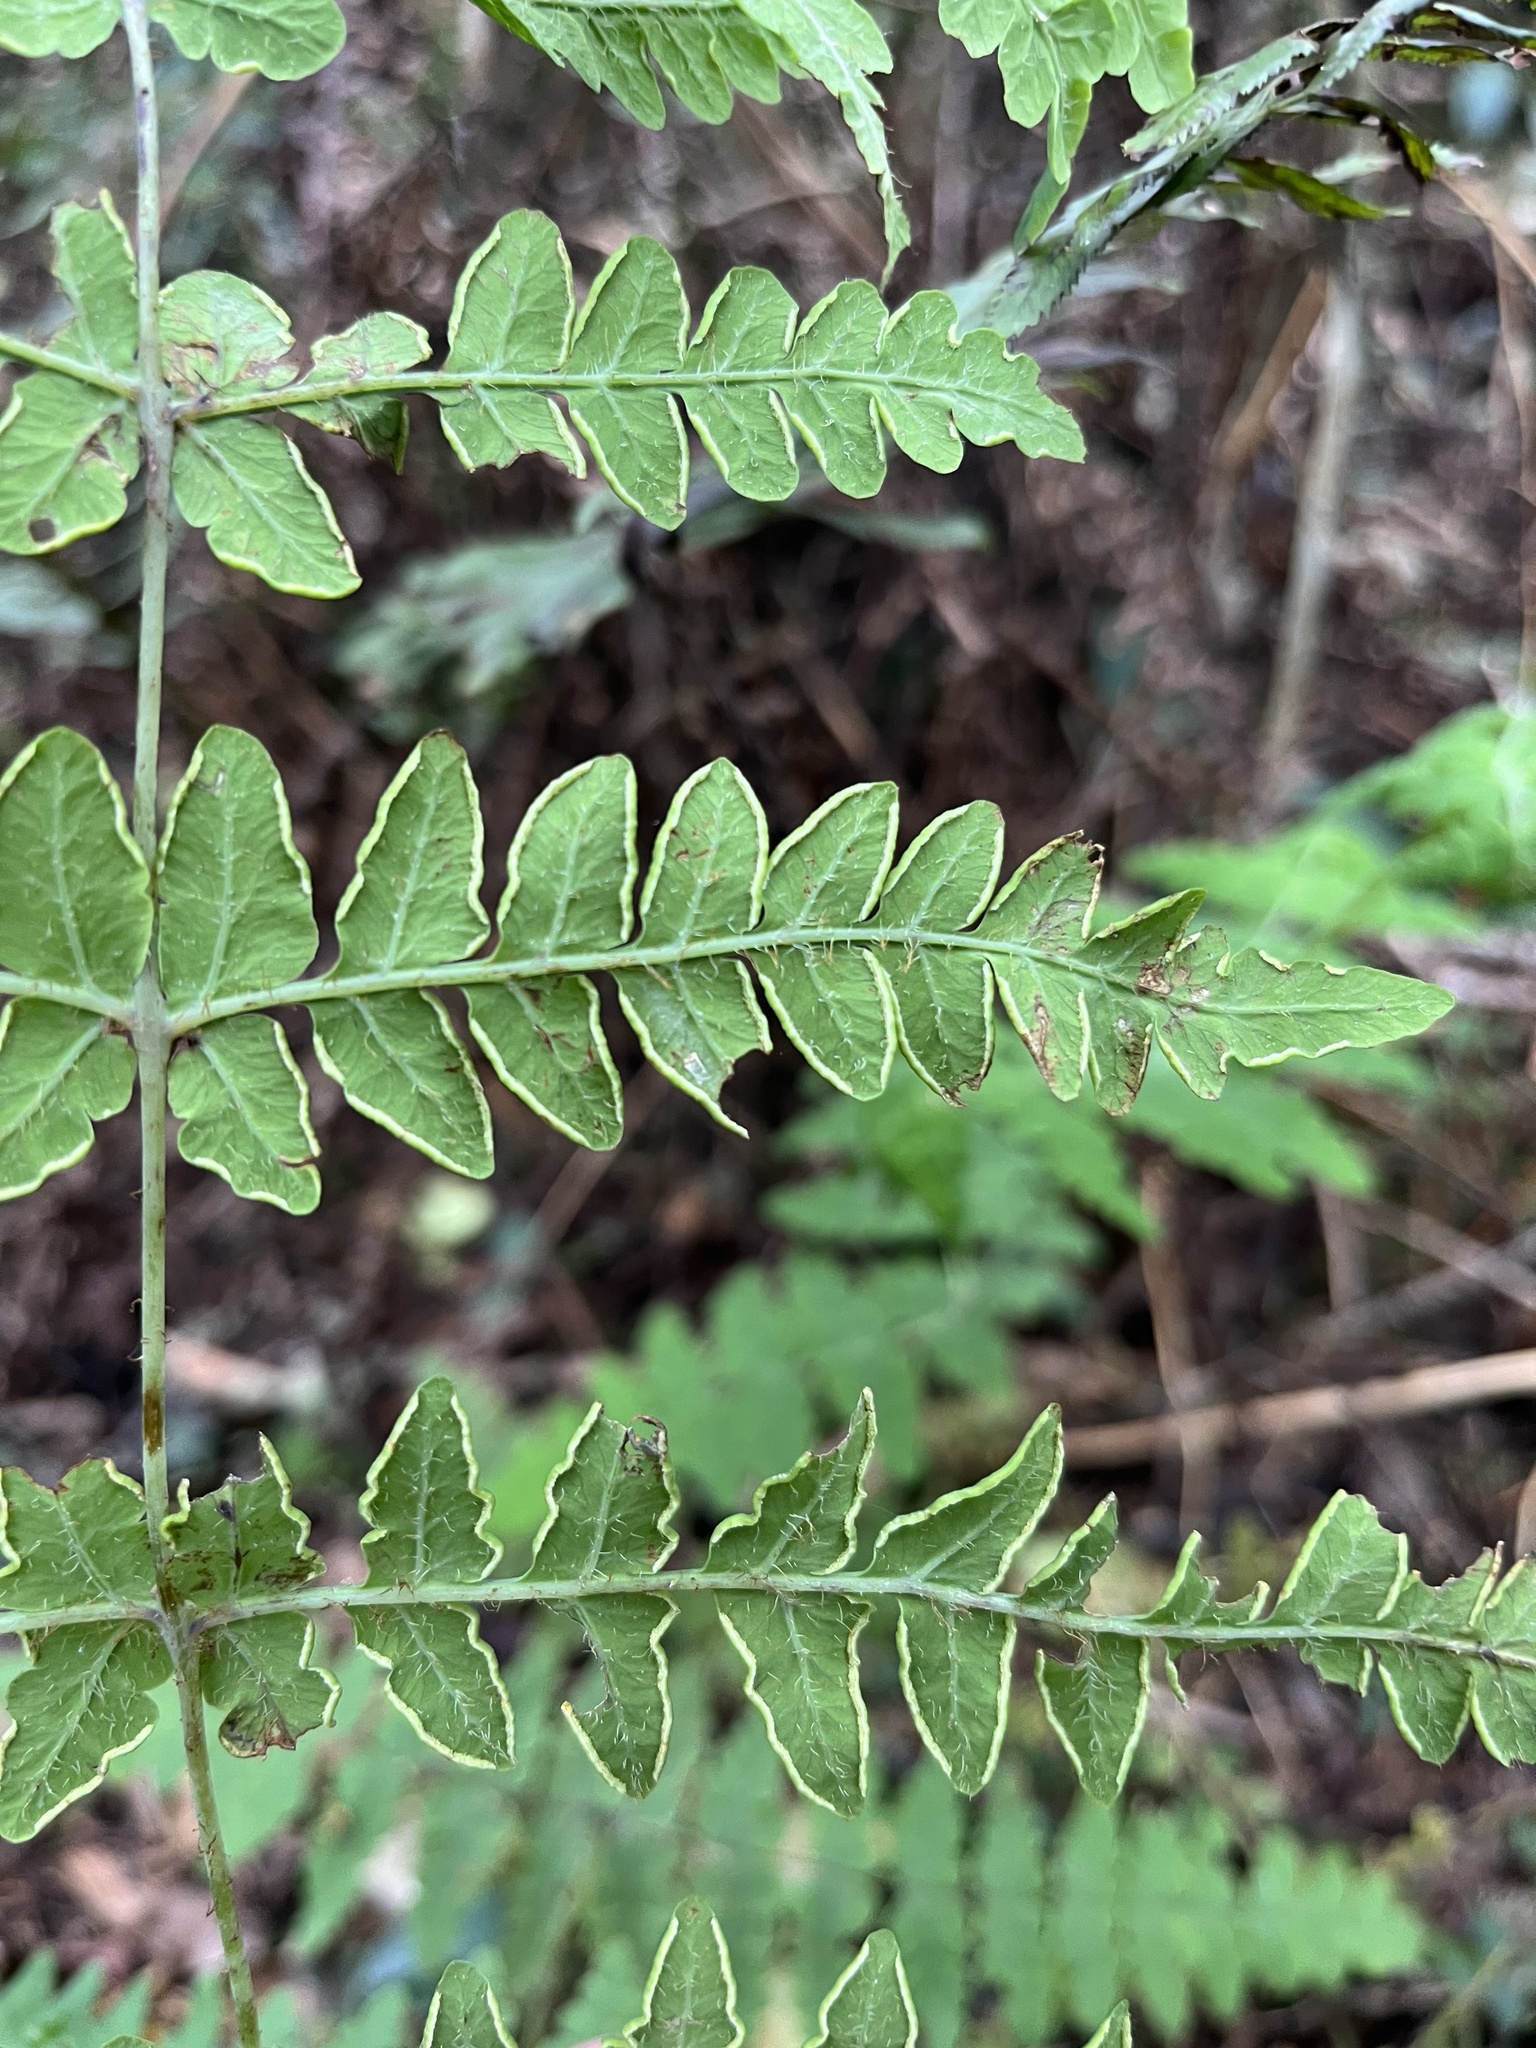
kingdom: Plantae
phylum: Tracheophyta
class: Polypodiopsida
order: Polypodiales
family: Dennstaedtiaceae
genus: Histiopteris
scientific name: Histiopteris incisa
